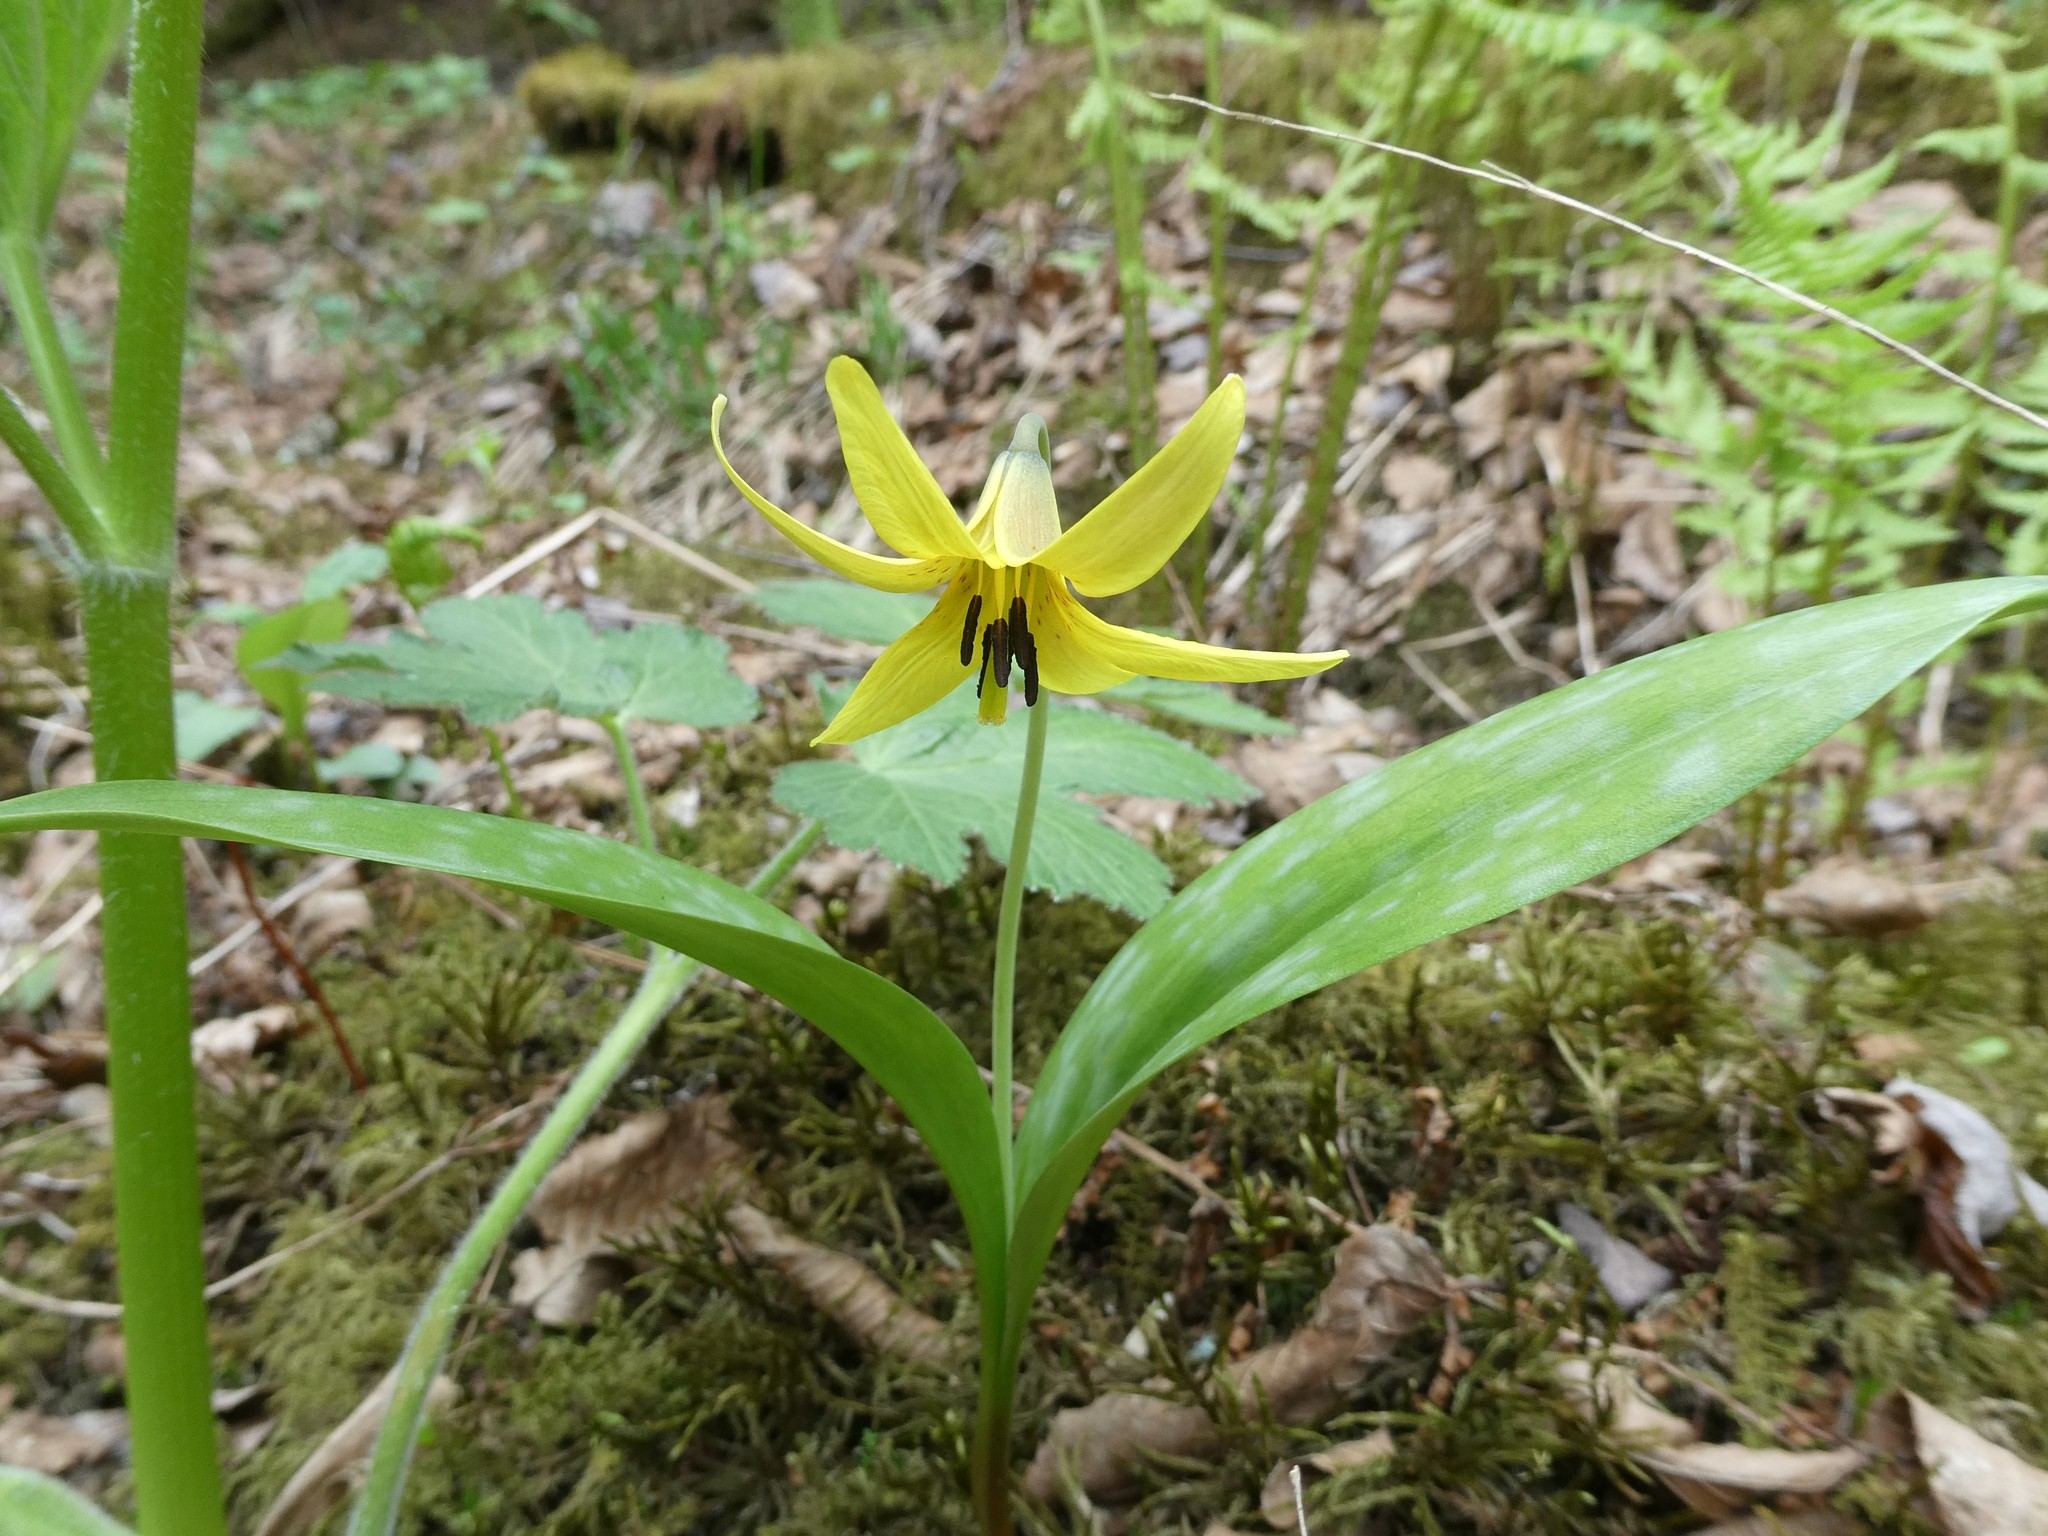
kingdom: Plantae
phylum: Tracheophyta
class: Liliopsida
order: Liliales
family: Liliaceae
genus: Erythronium
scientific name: Erythronium americanum
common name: Yellow adder's-tongue
